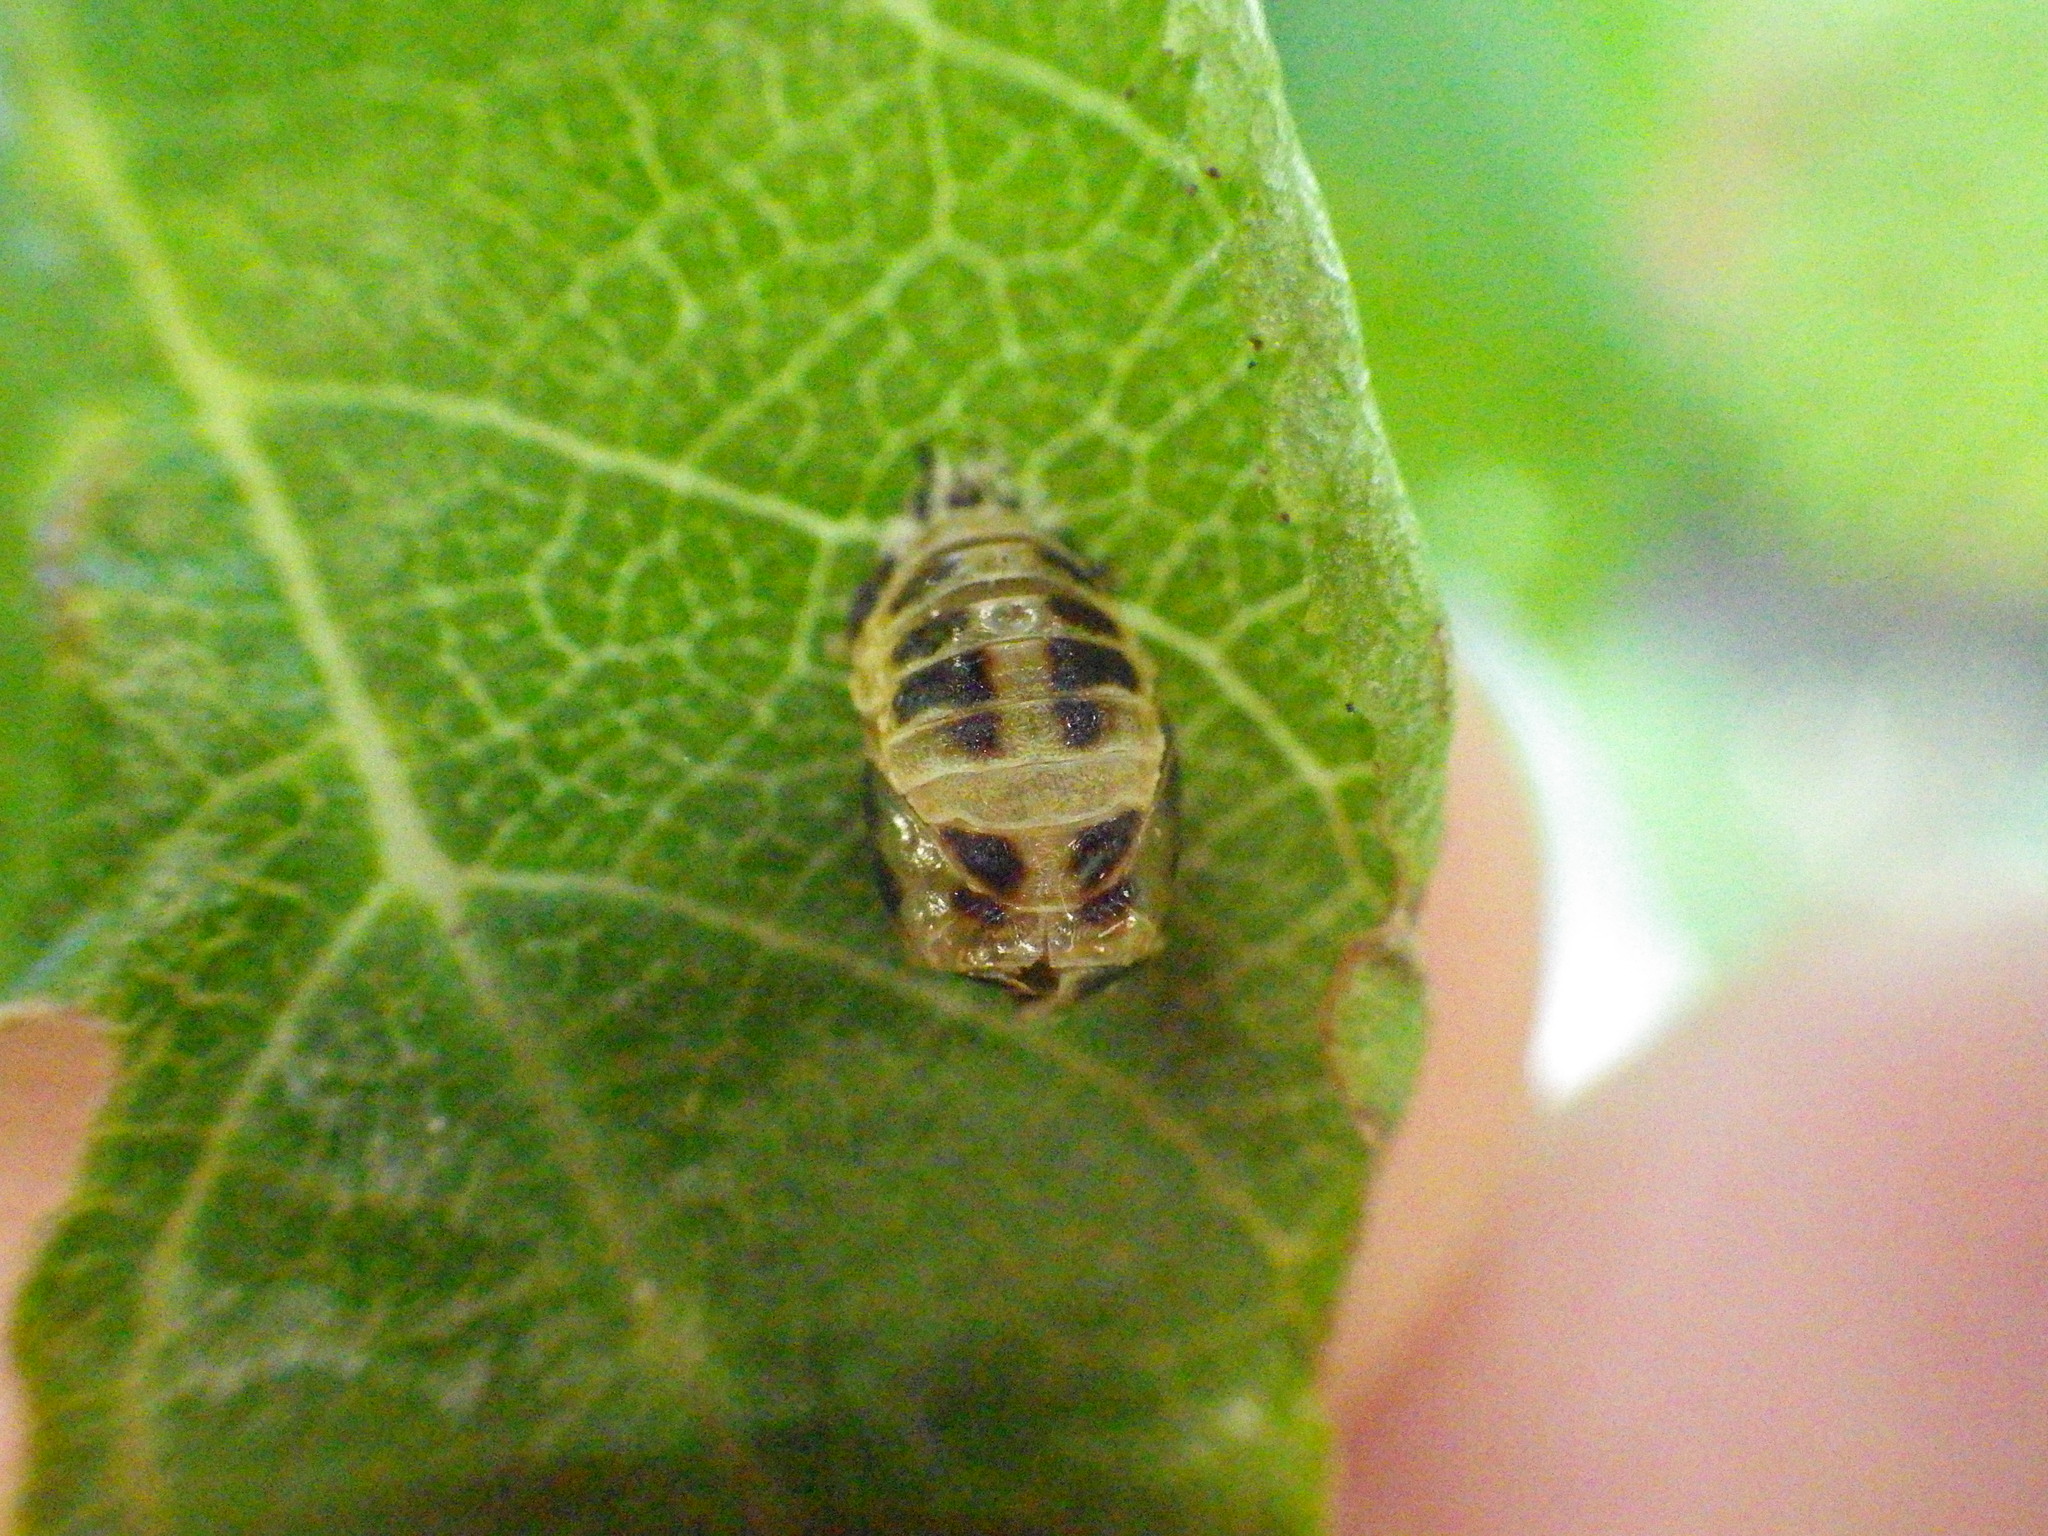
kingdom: Animalia
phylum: Arthropoda
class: Insecta
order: Coleoptera
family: Coccinellidae
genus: Harmonia
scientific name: Harmonia axyridis
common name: Harlequin ladybird
